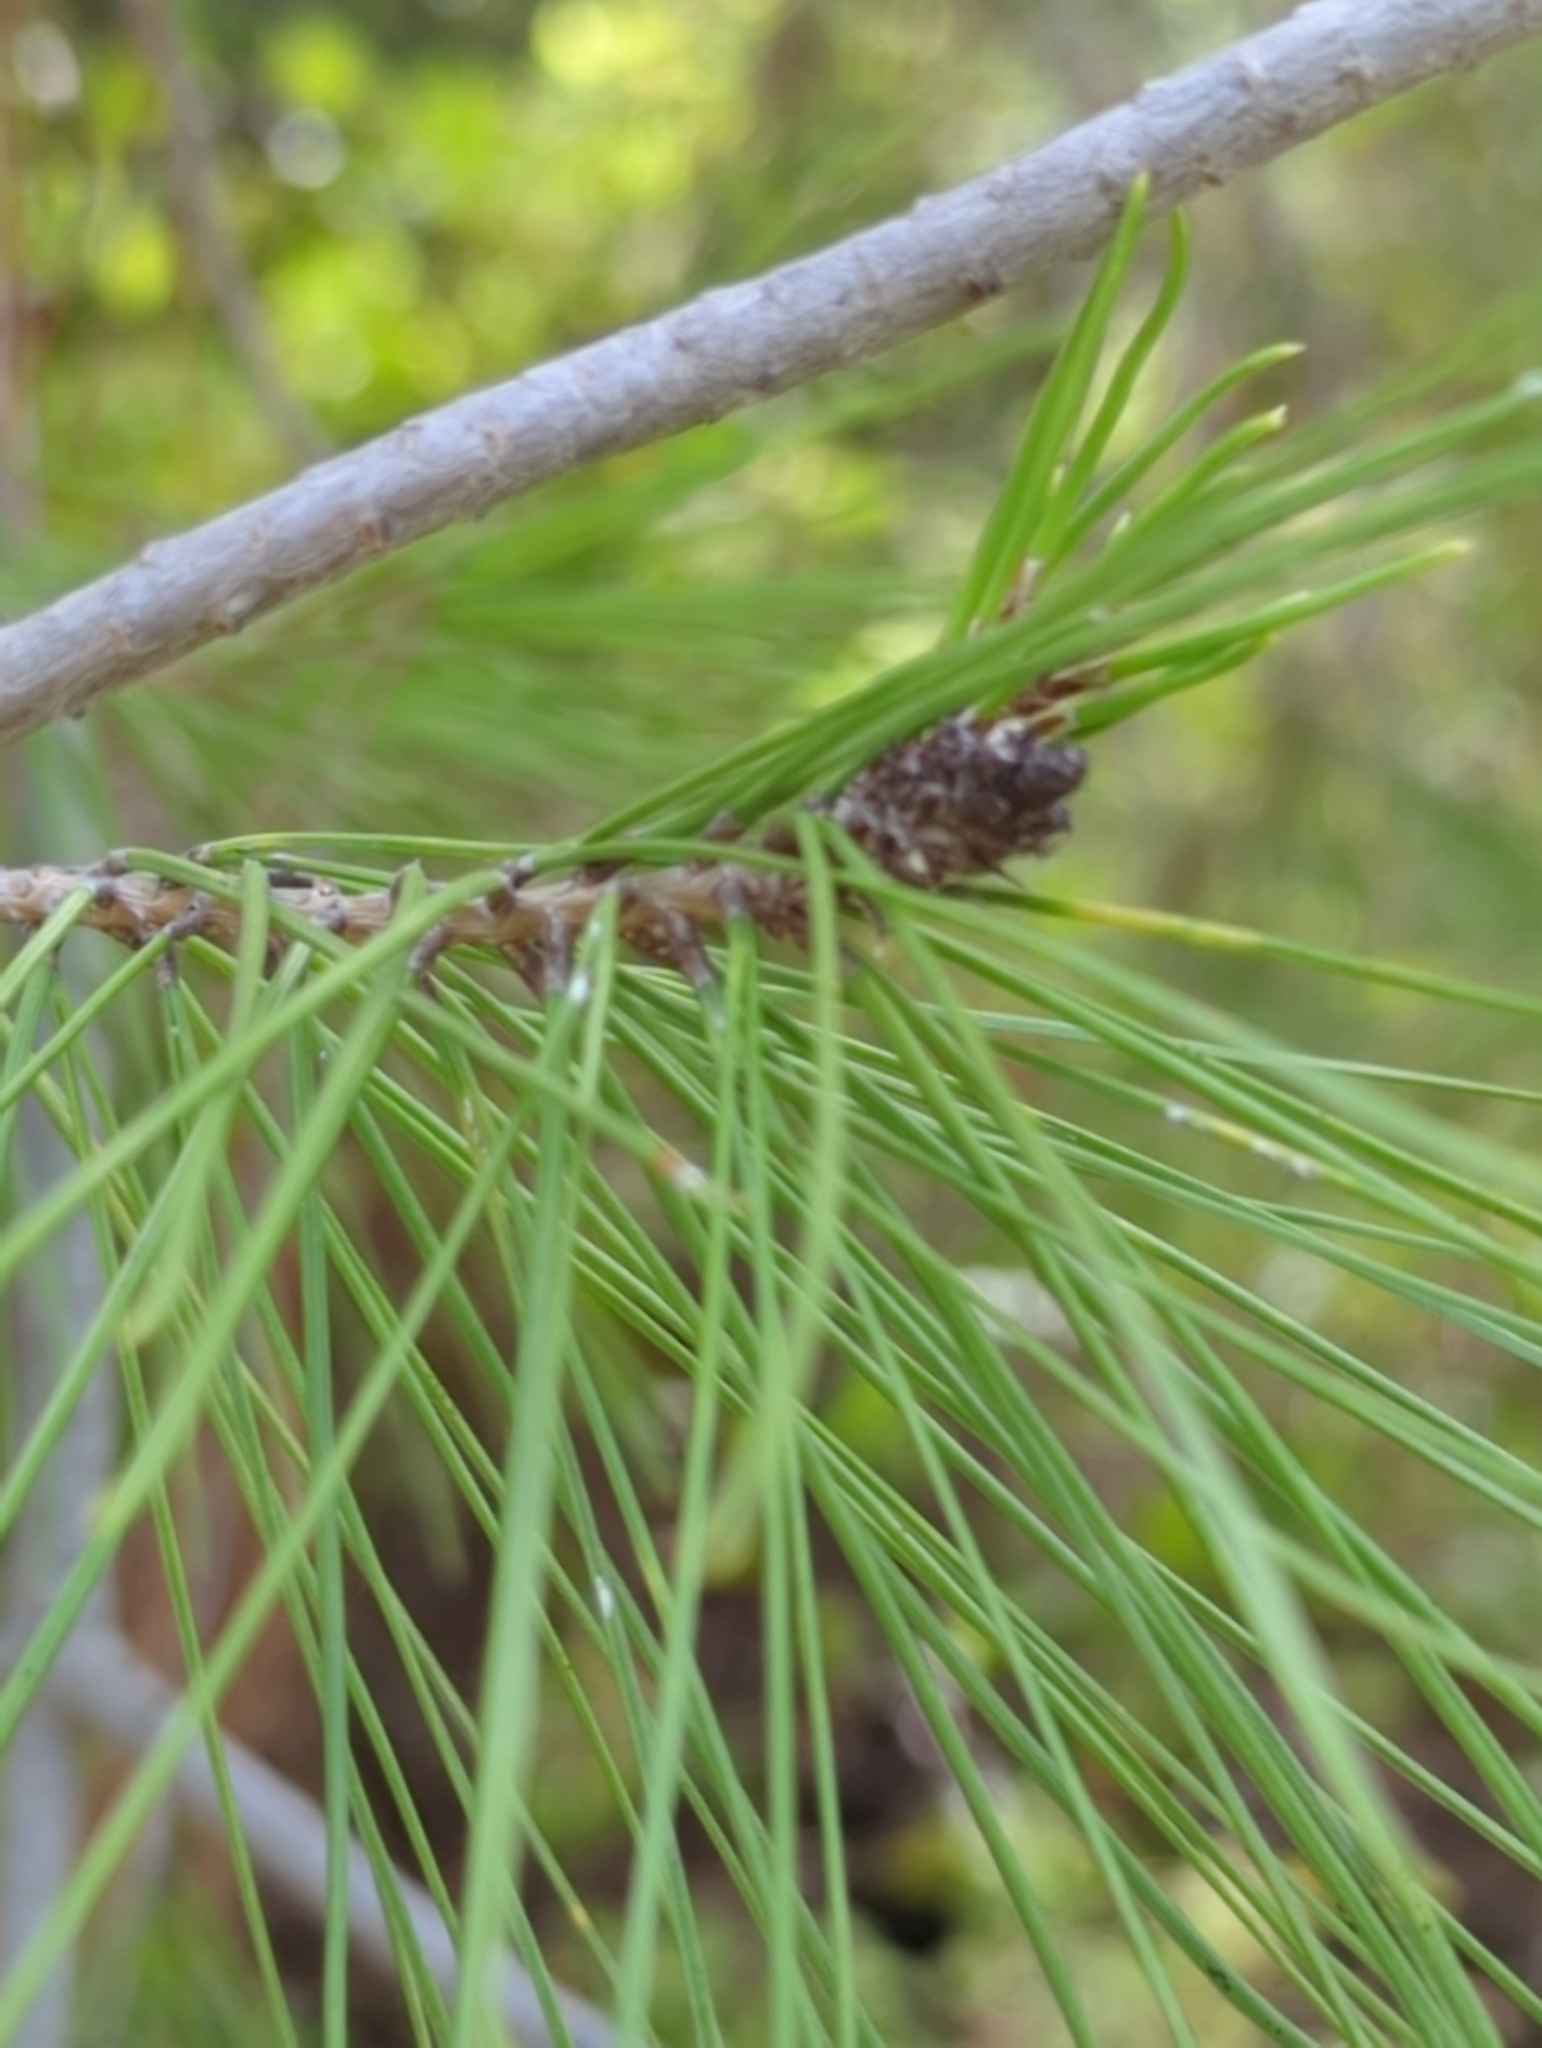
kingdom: Plantae
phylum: Tracheophyta
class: Pinopsida
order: Pinales
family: Pinaceae
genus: Pinus
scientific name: Pinus halepensis
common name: Aleppo pine
